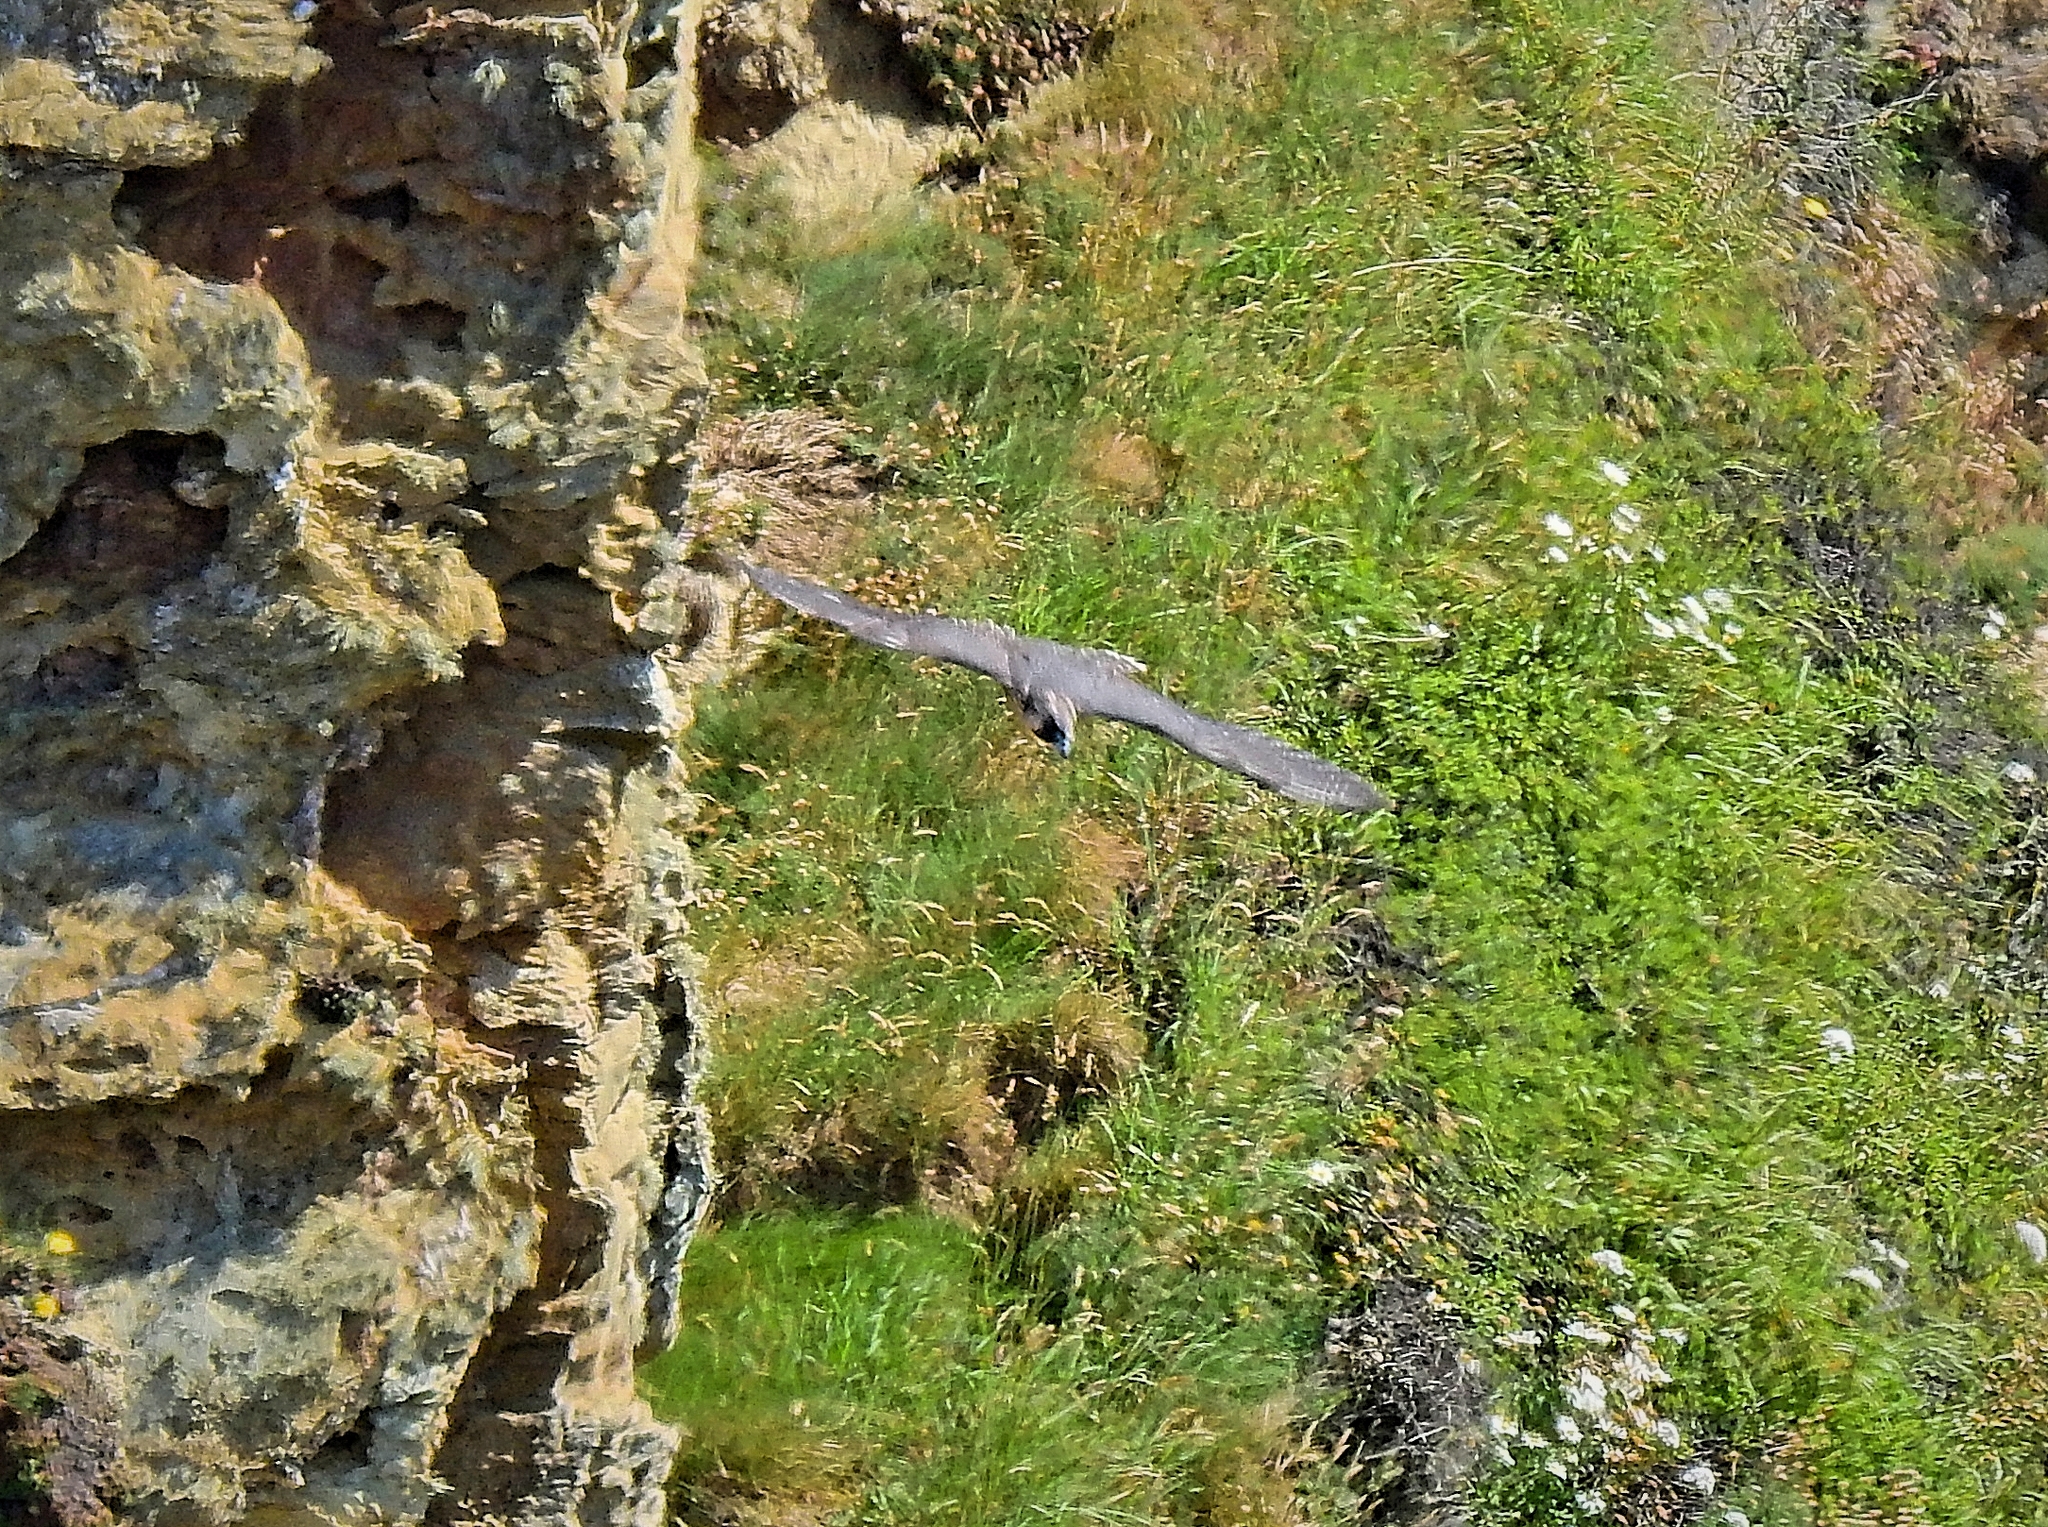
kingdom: Animalia
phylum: Chordata
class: Aves
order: Falconiformes
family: Falconidae
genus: Falco
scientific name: Falco peregrinus
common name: Peregrine falcon
